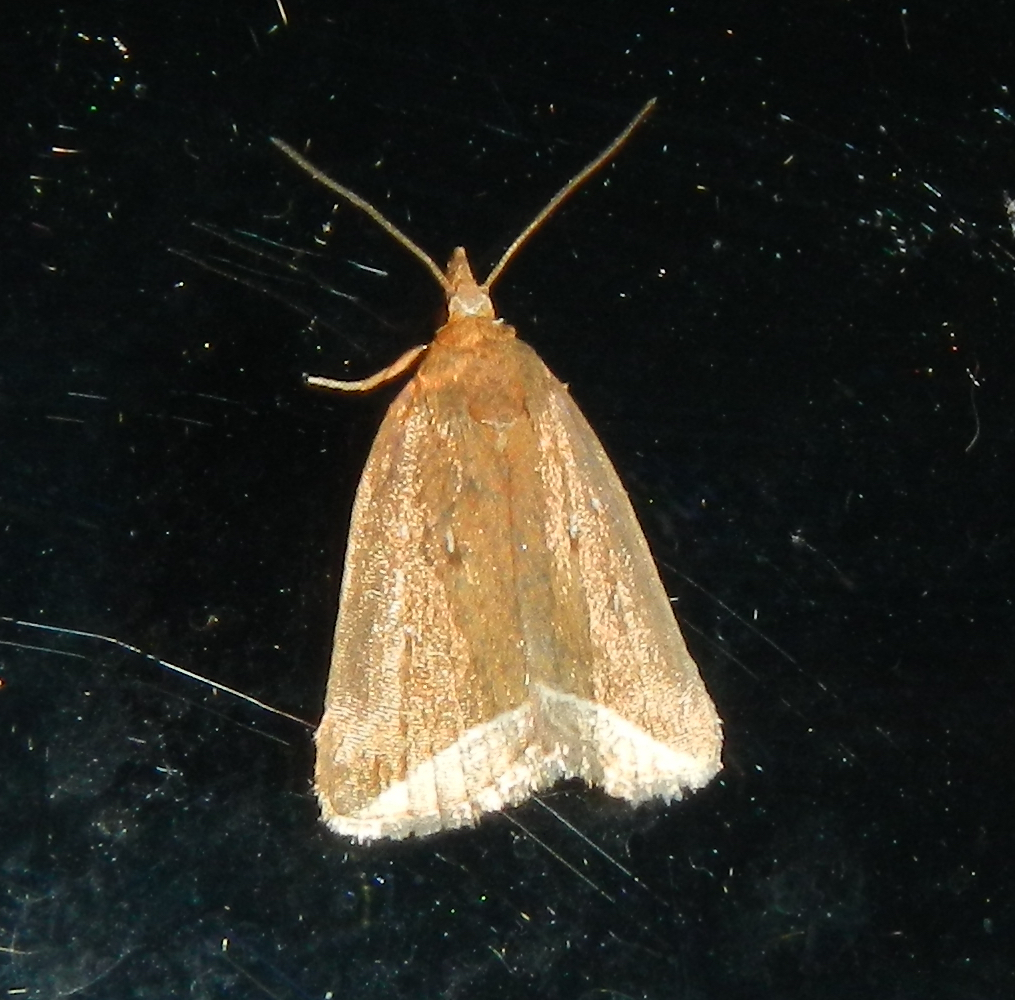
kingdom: Animalia
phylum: Arthropoda
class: Insecta
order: Lepidoptera
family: Erebidae
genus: Capis
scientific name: Capis curvata
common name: Curved halter moth
